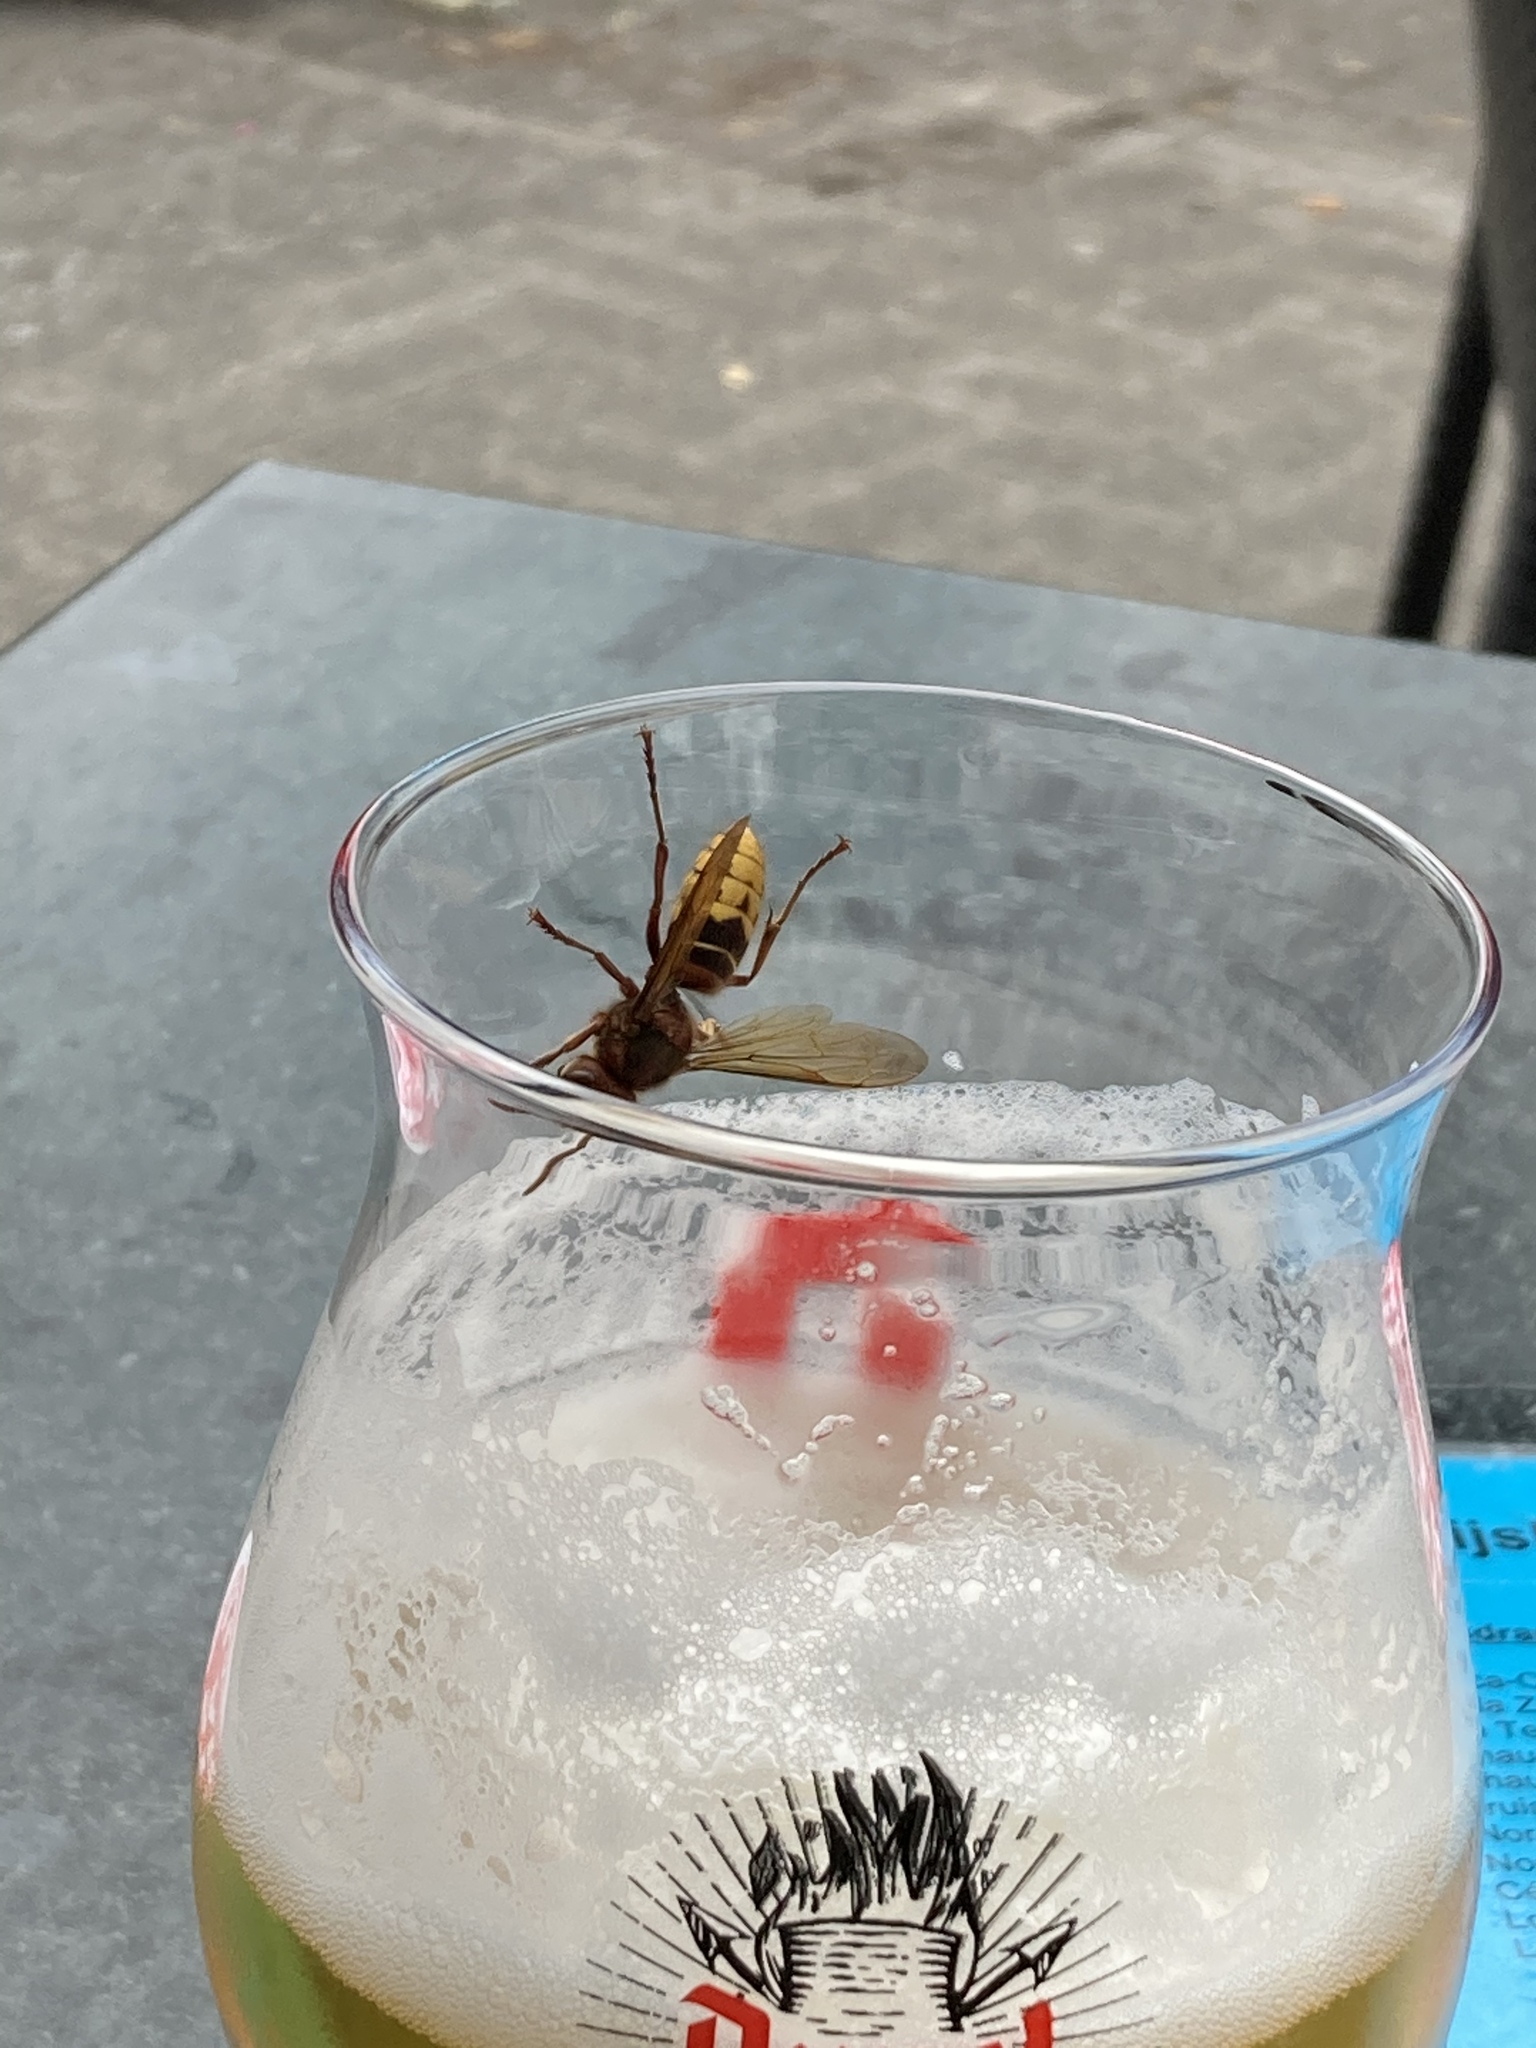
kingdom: Animalia
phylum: Arthropoda
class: Insecta
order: Hymenoptera
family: Vespidae
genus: Vespa
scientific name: Vespa crabro
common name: Hornet
